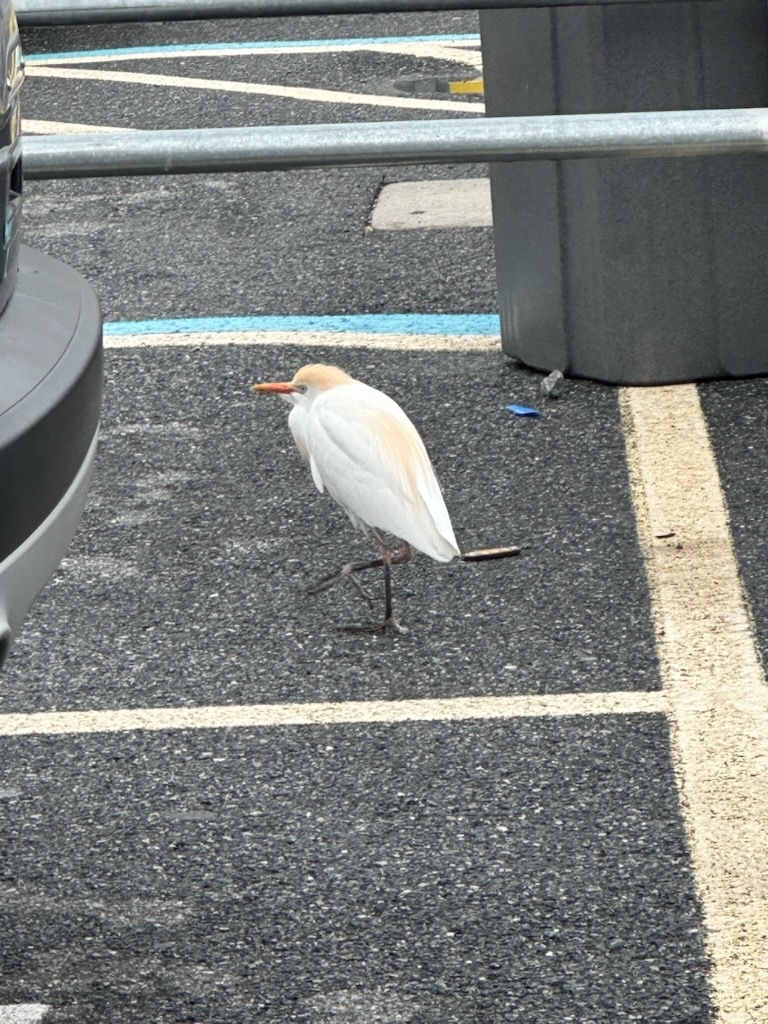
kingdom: Animalia
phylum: Chordata
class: Aves
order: Pelecaniformes
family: Ardeidae
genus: Bubulcus
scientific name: Bubulcus ibis
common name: Cattle egret
